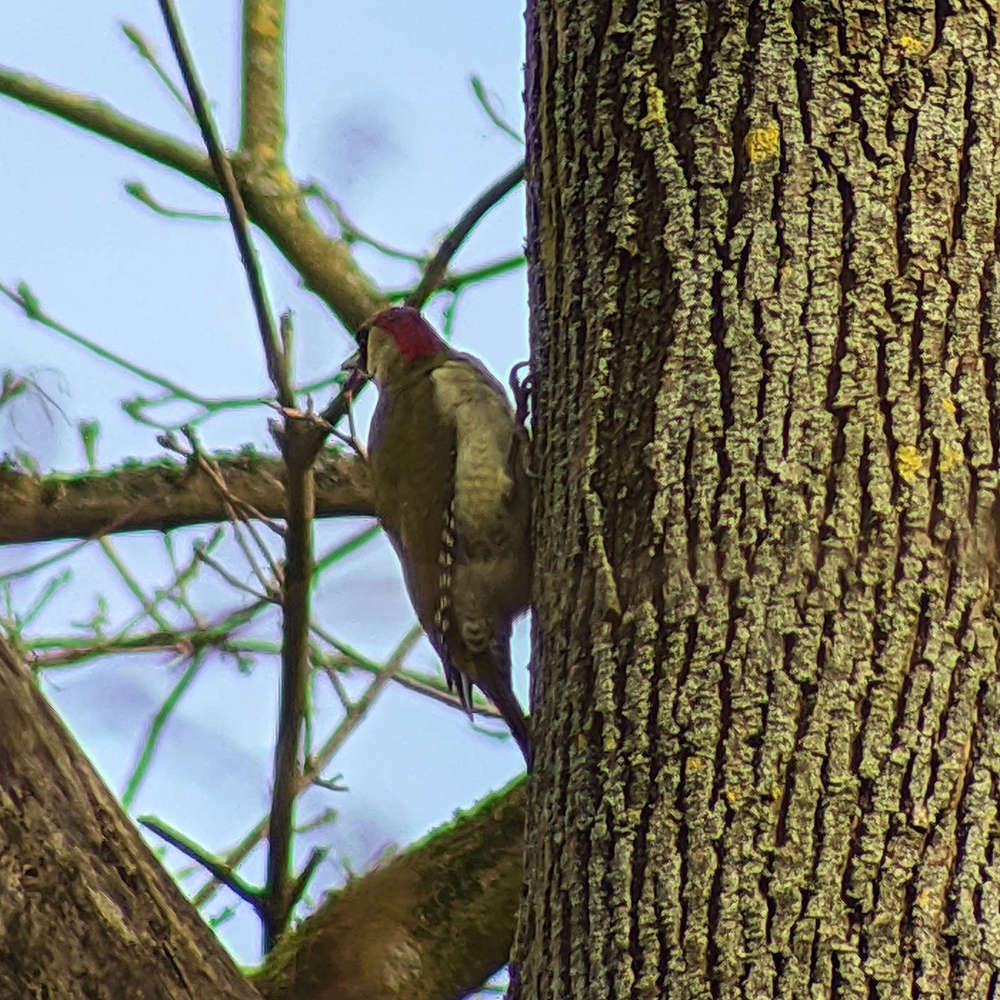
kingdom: Animalia
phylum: Chordata
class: Aves
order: Piciformes
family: Picidae
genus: Picus
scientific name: Picus viridis
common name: European green woodpecker
